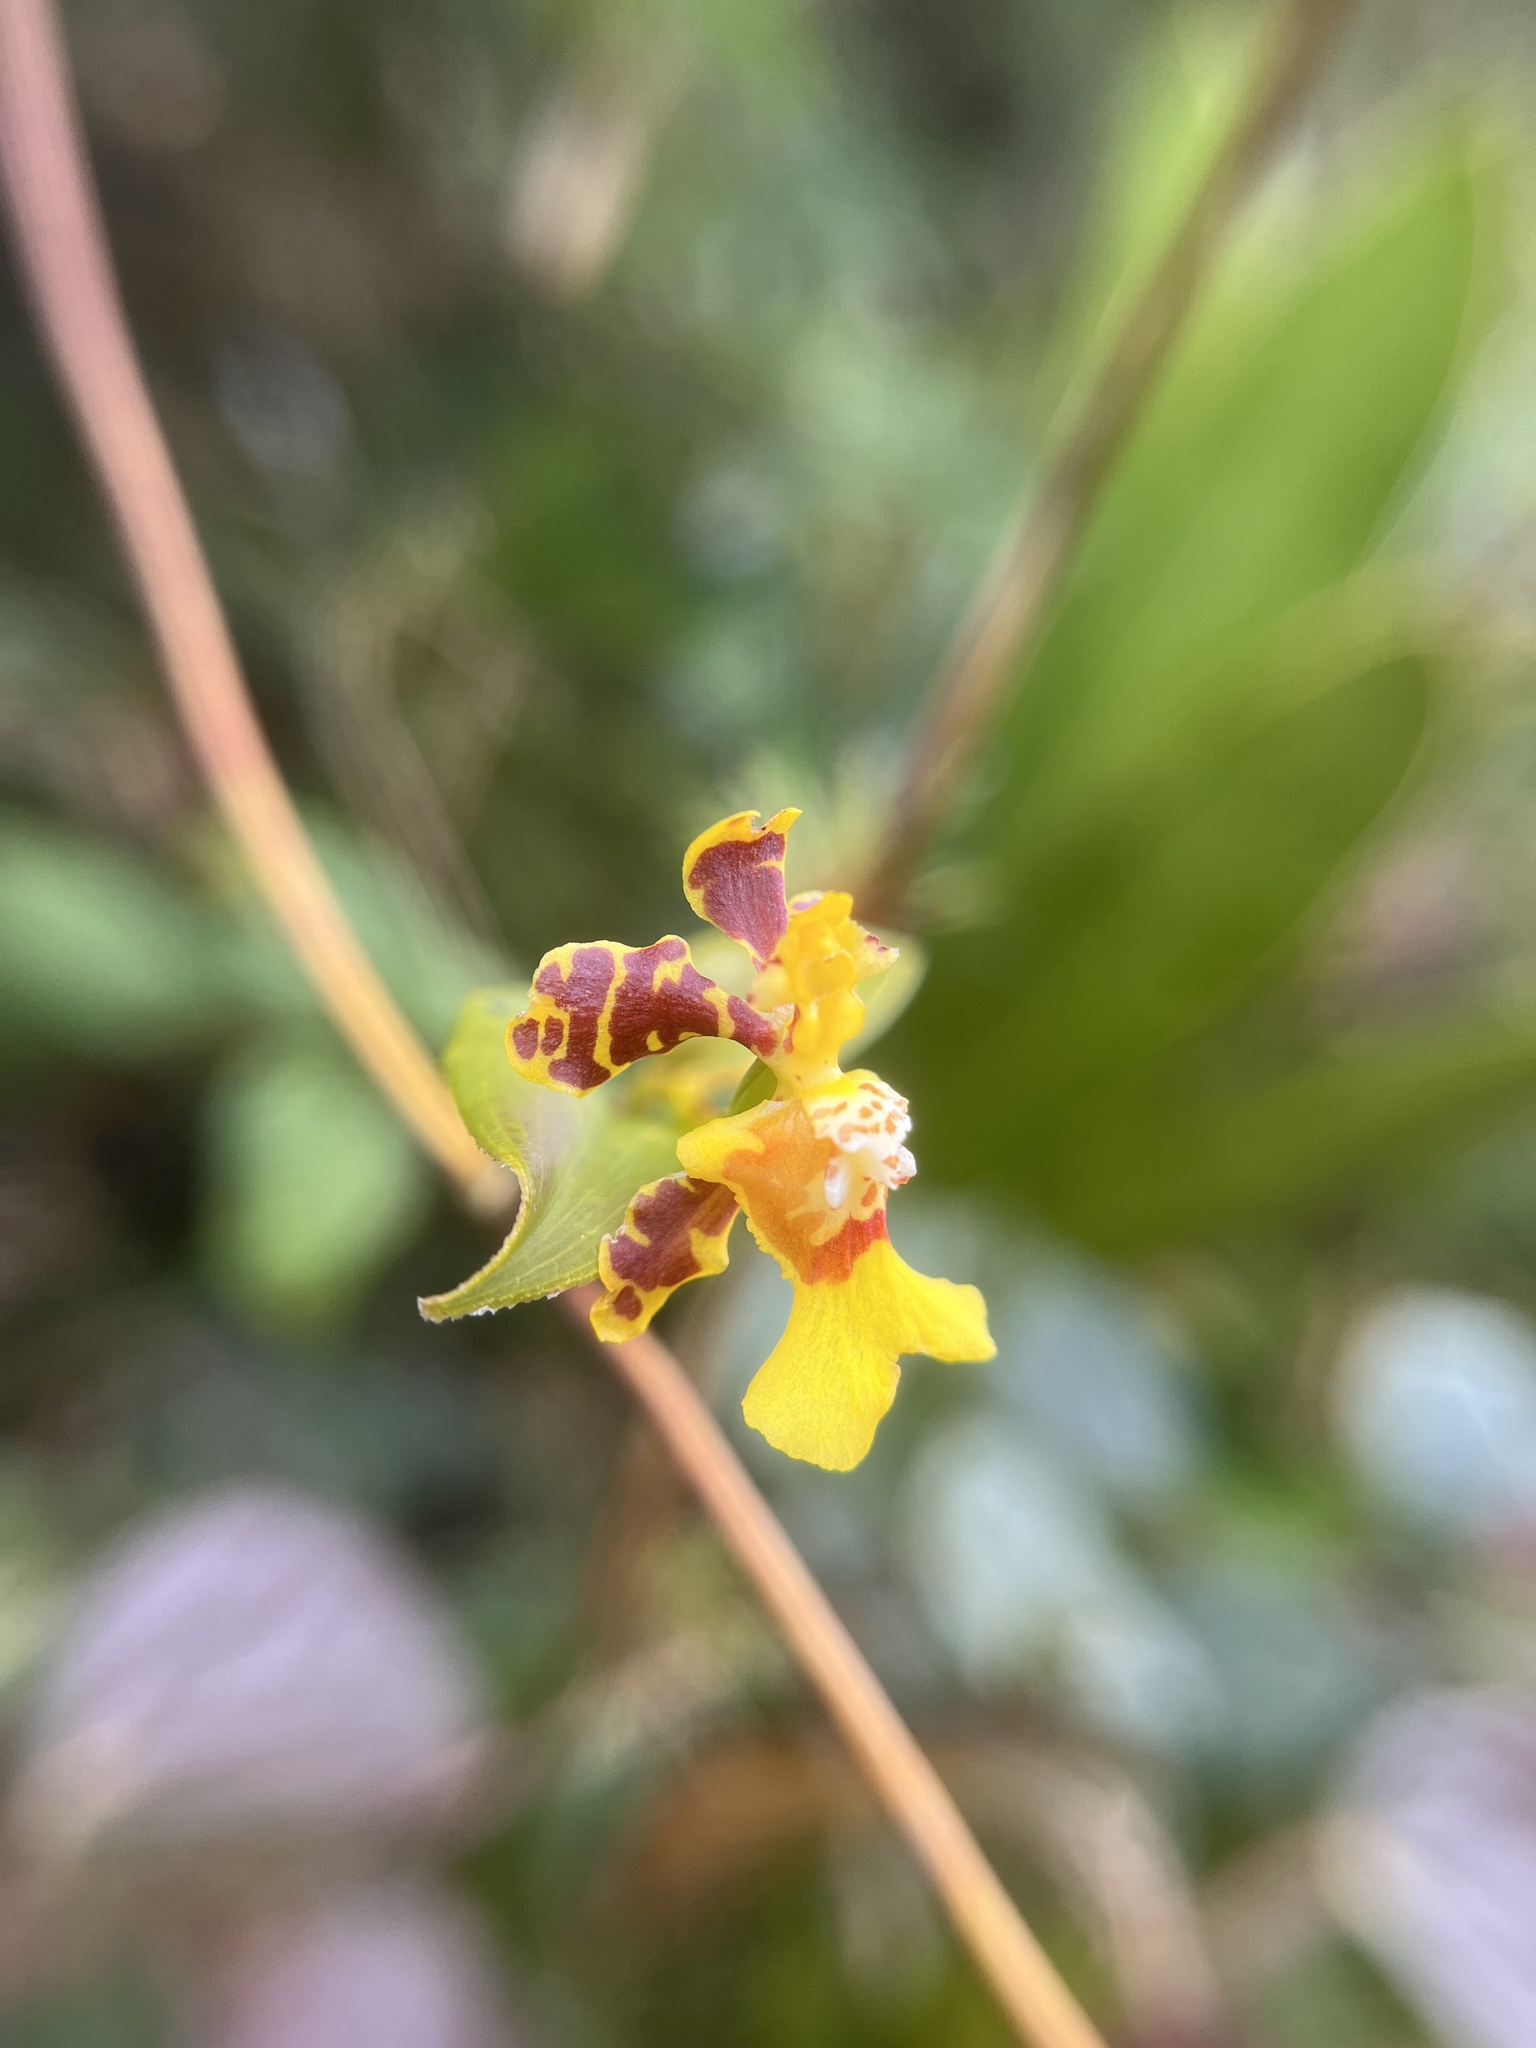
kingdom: Plantae
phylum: Tracheophyta
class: Liliopsida
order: Asparagales
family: Orchidaceae
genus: Otoglossum
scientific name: Otoglossum serpens
